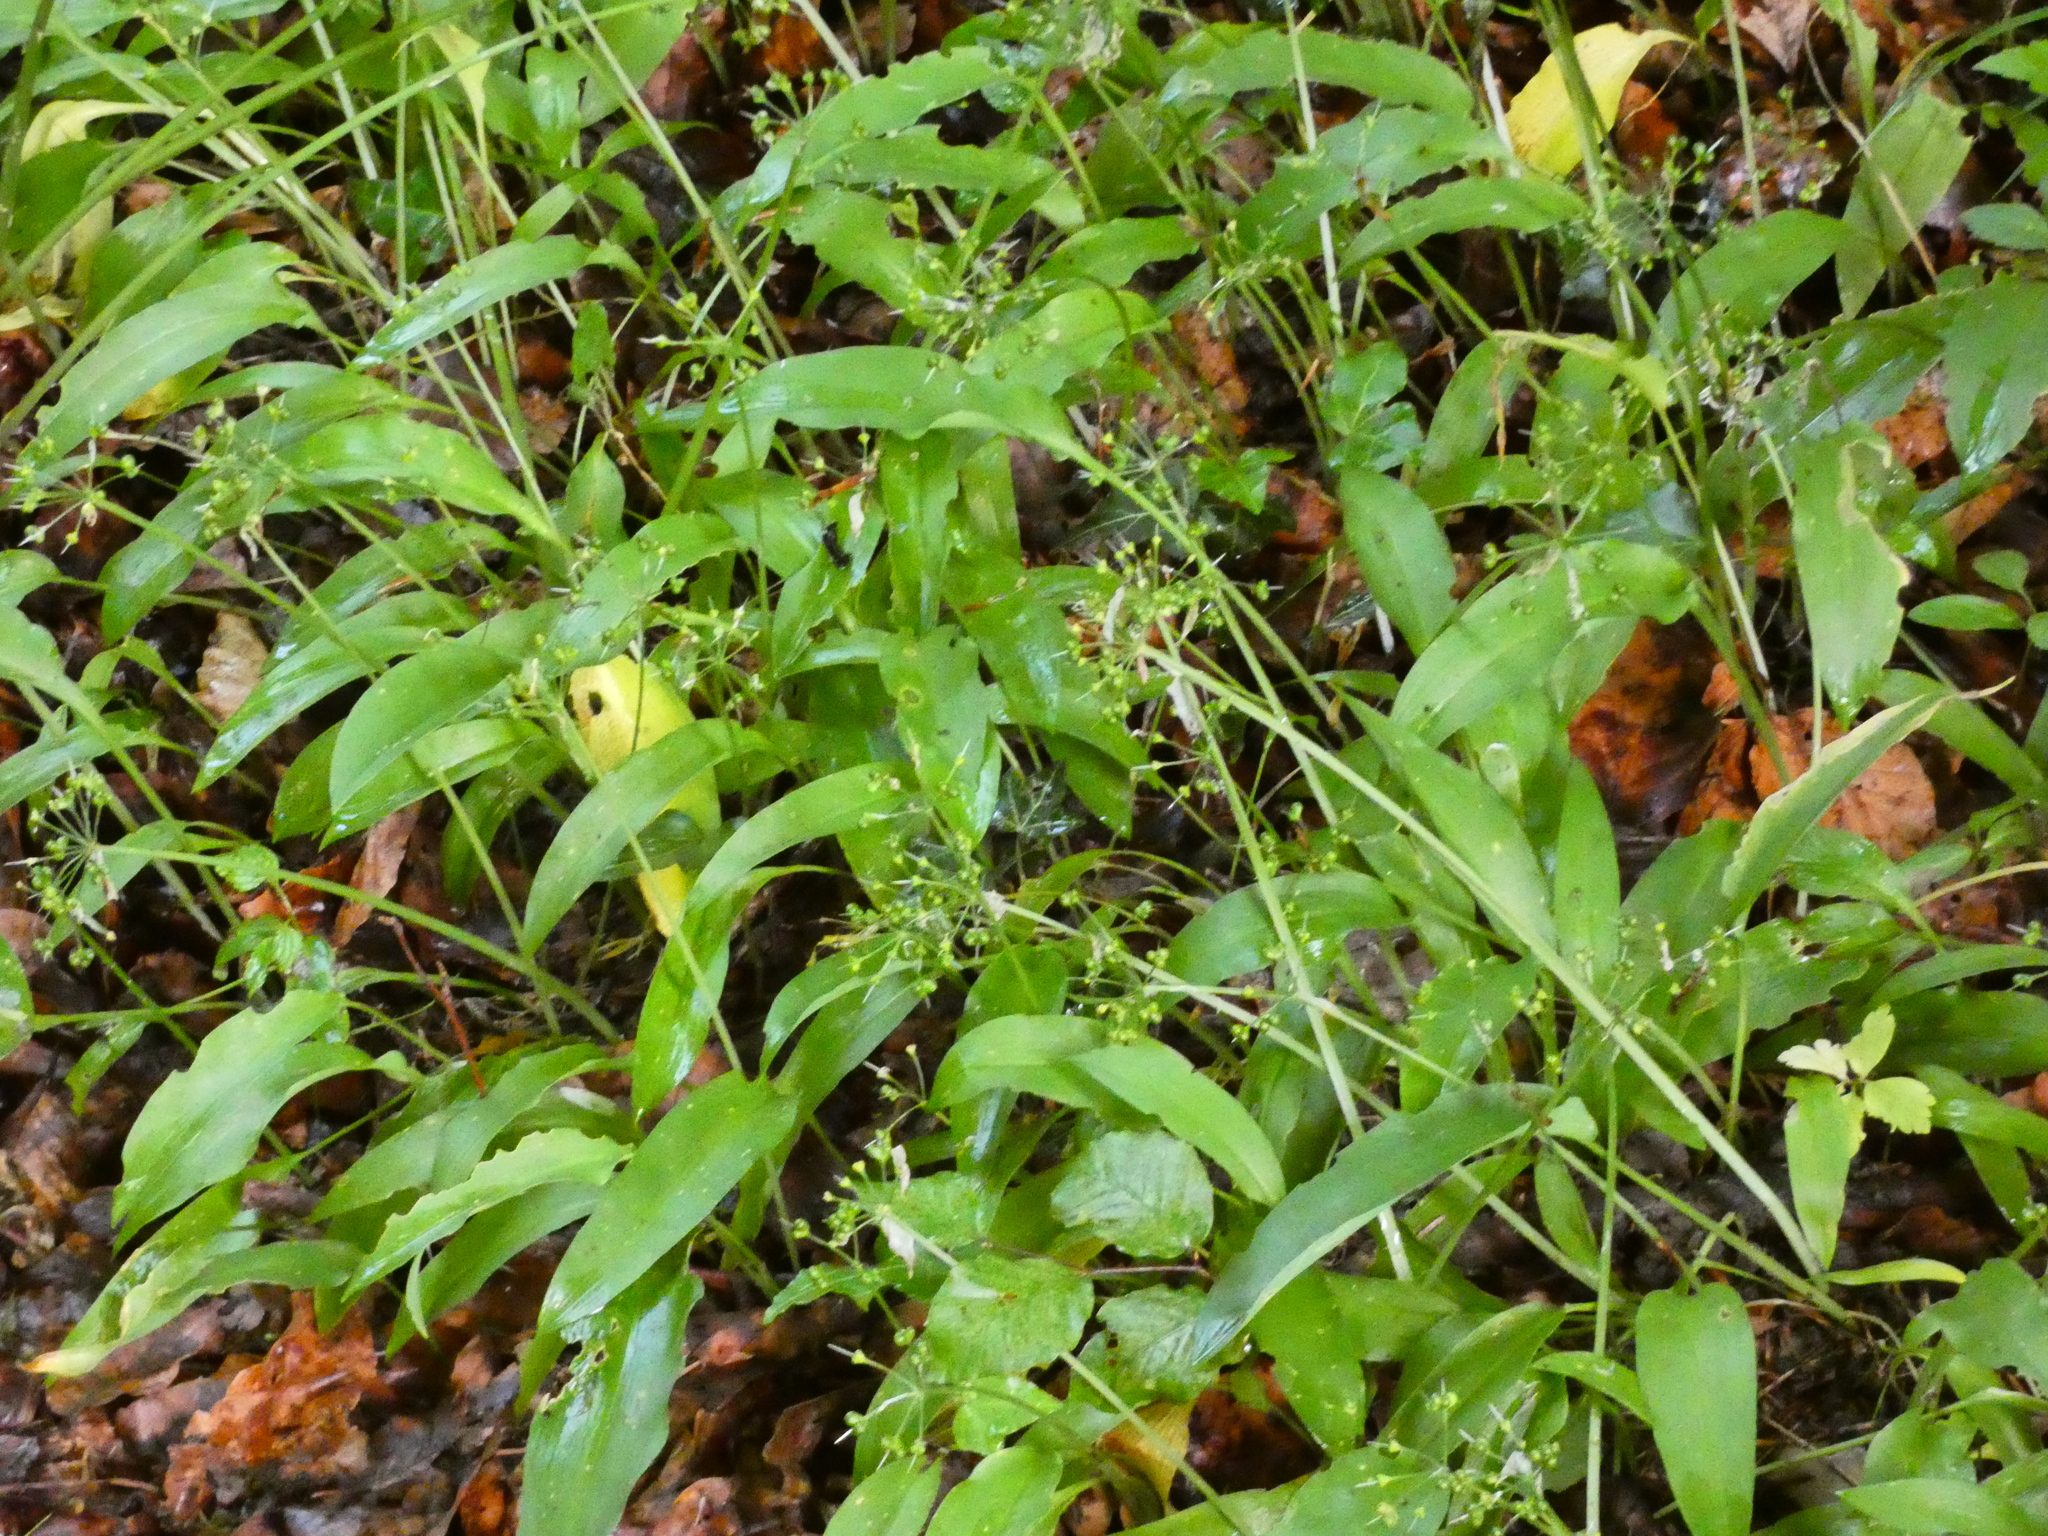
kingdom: Plantae
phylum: Tracheophyta
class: Liliopsida
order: Asparagales
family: Amaryllidaceae
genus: Allium
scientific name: Allium ursinum
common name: Ramsons
